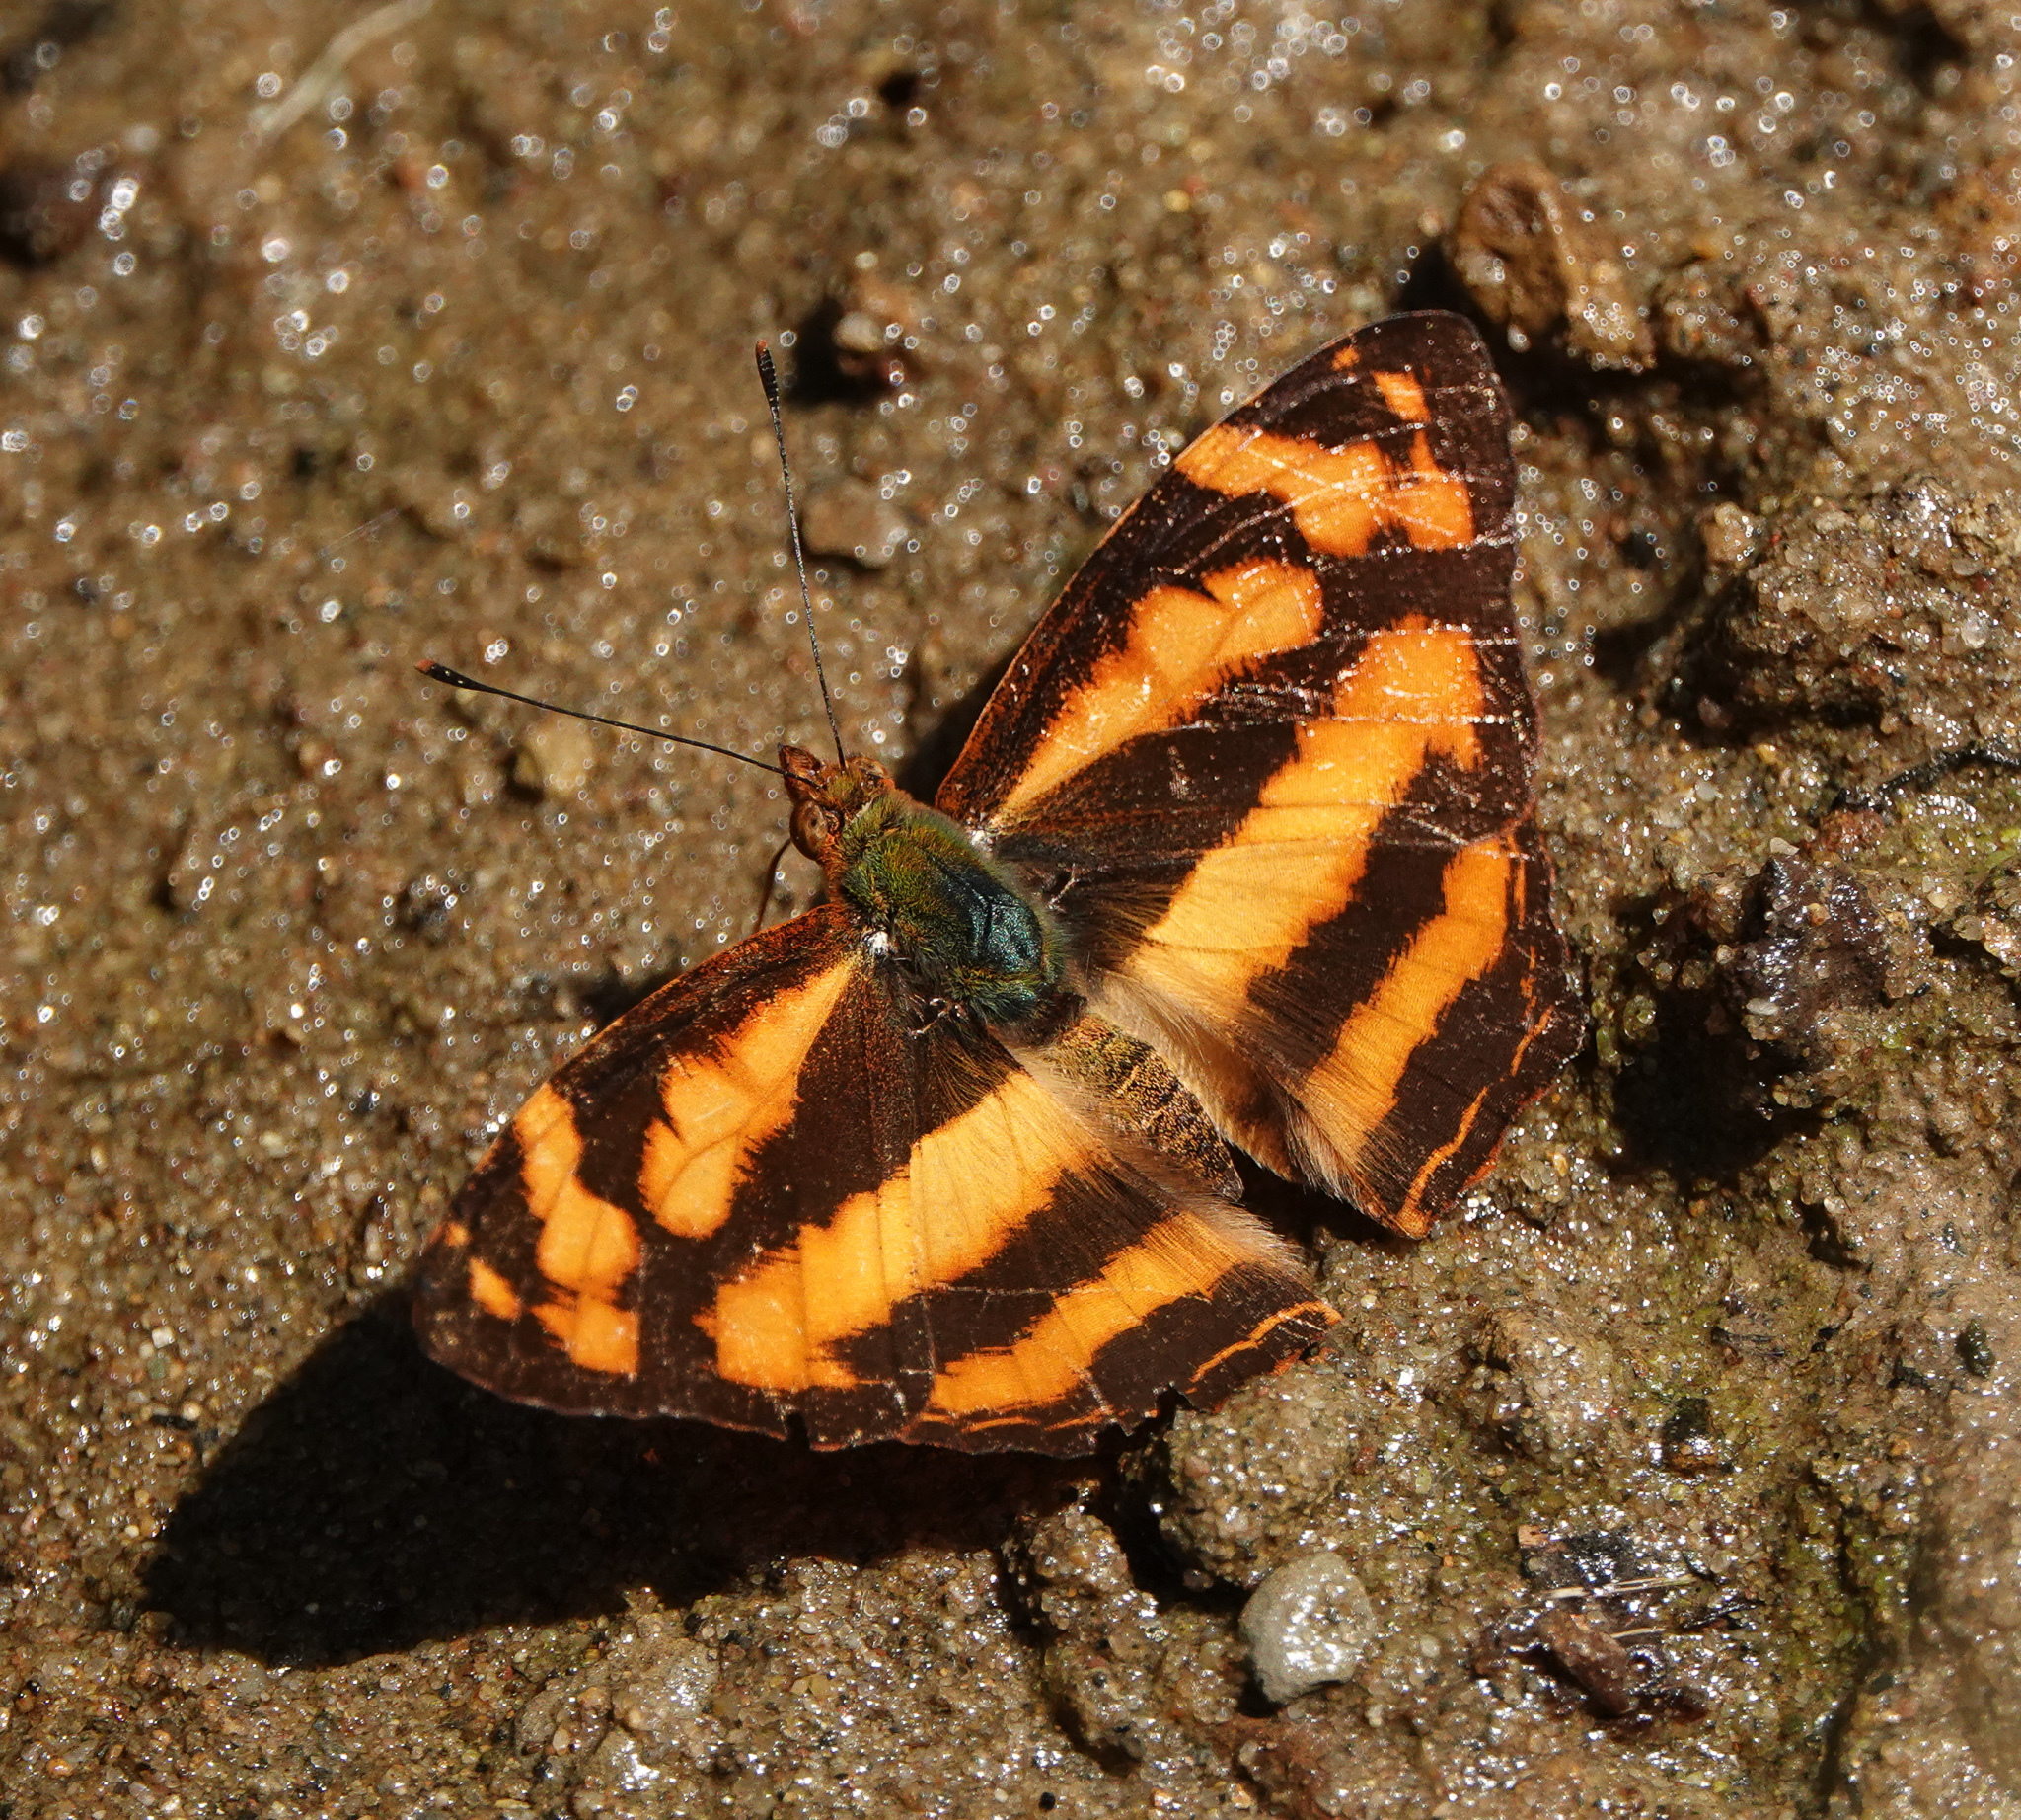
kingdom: Animalia
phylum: Arthropoda
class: Insecta
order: Lepidoptera
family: Nymphalidae
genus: Symbrenthia
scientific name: Symbrenthia hypselis
